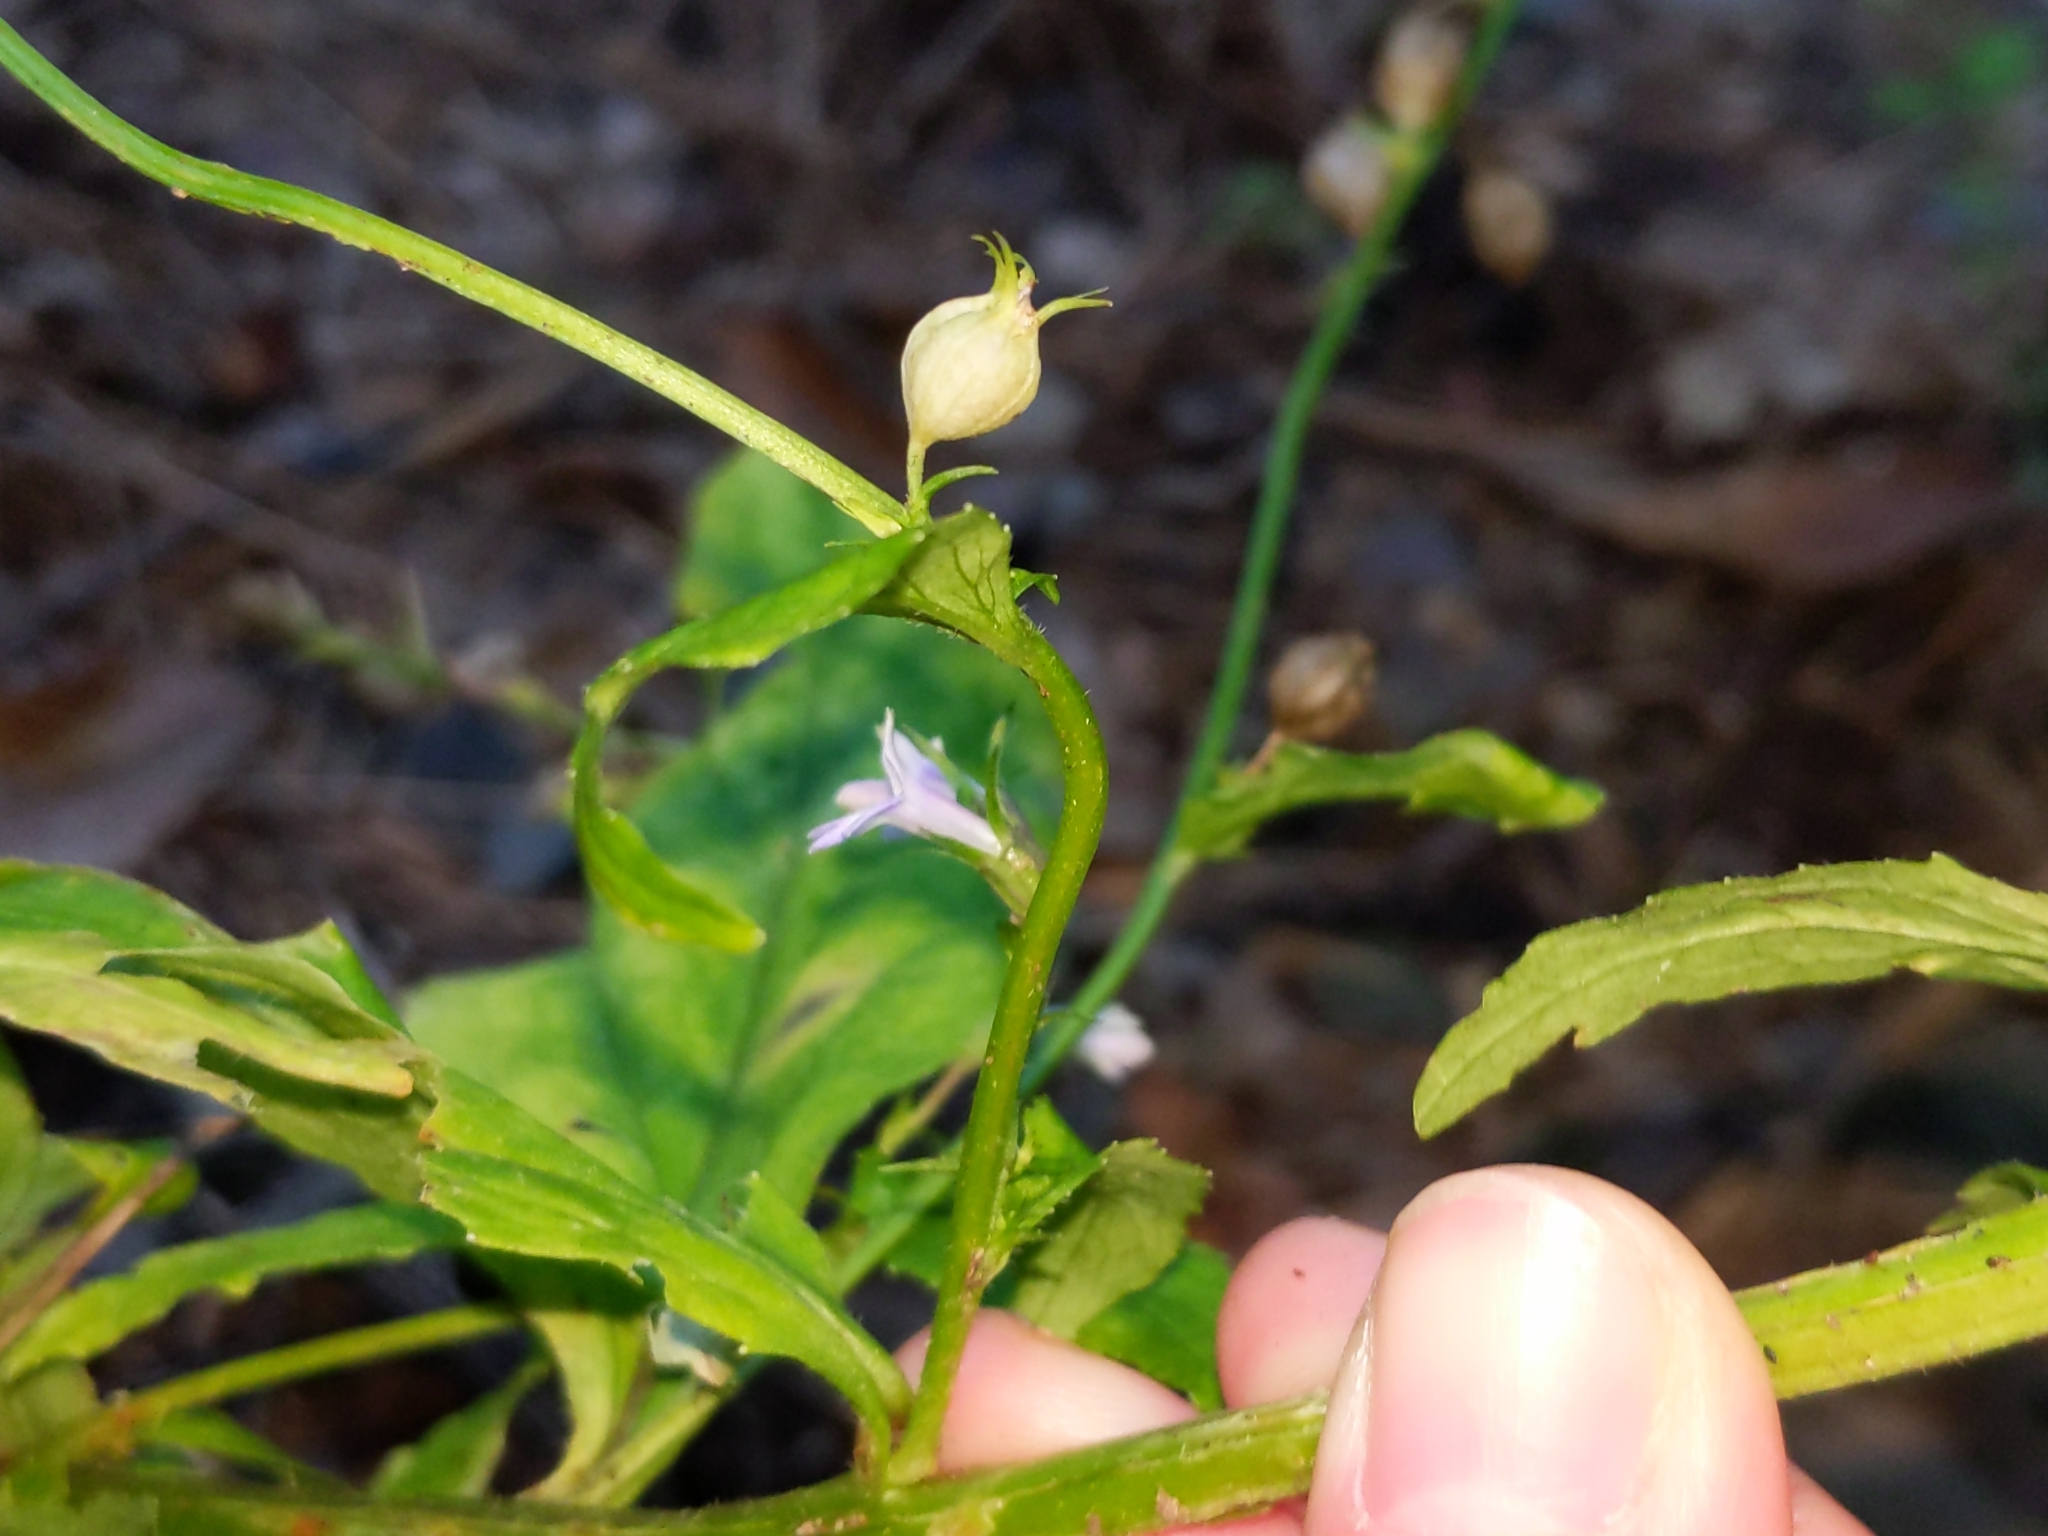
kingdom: Plantae
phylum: Tracheophyta
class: Magnoliopsida
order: Asterales
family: Campanulaceae
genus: Lobelia
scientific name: Lobelia inflata
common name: Indian tobacco
